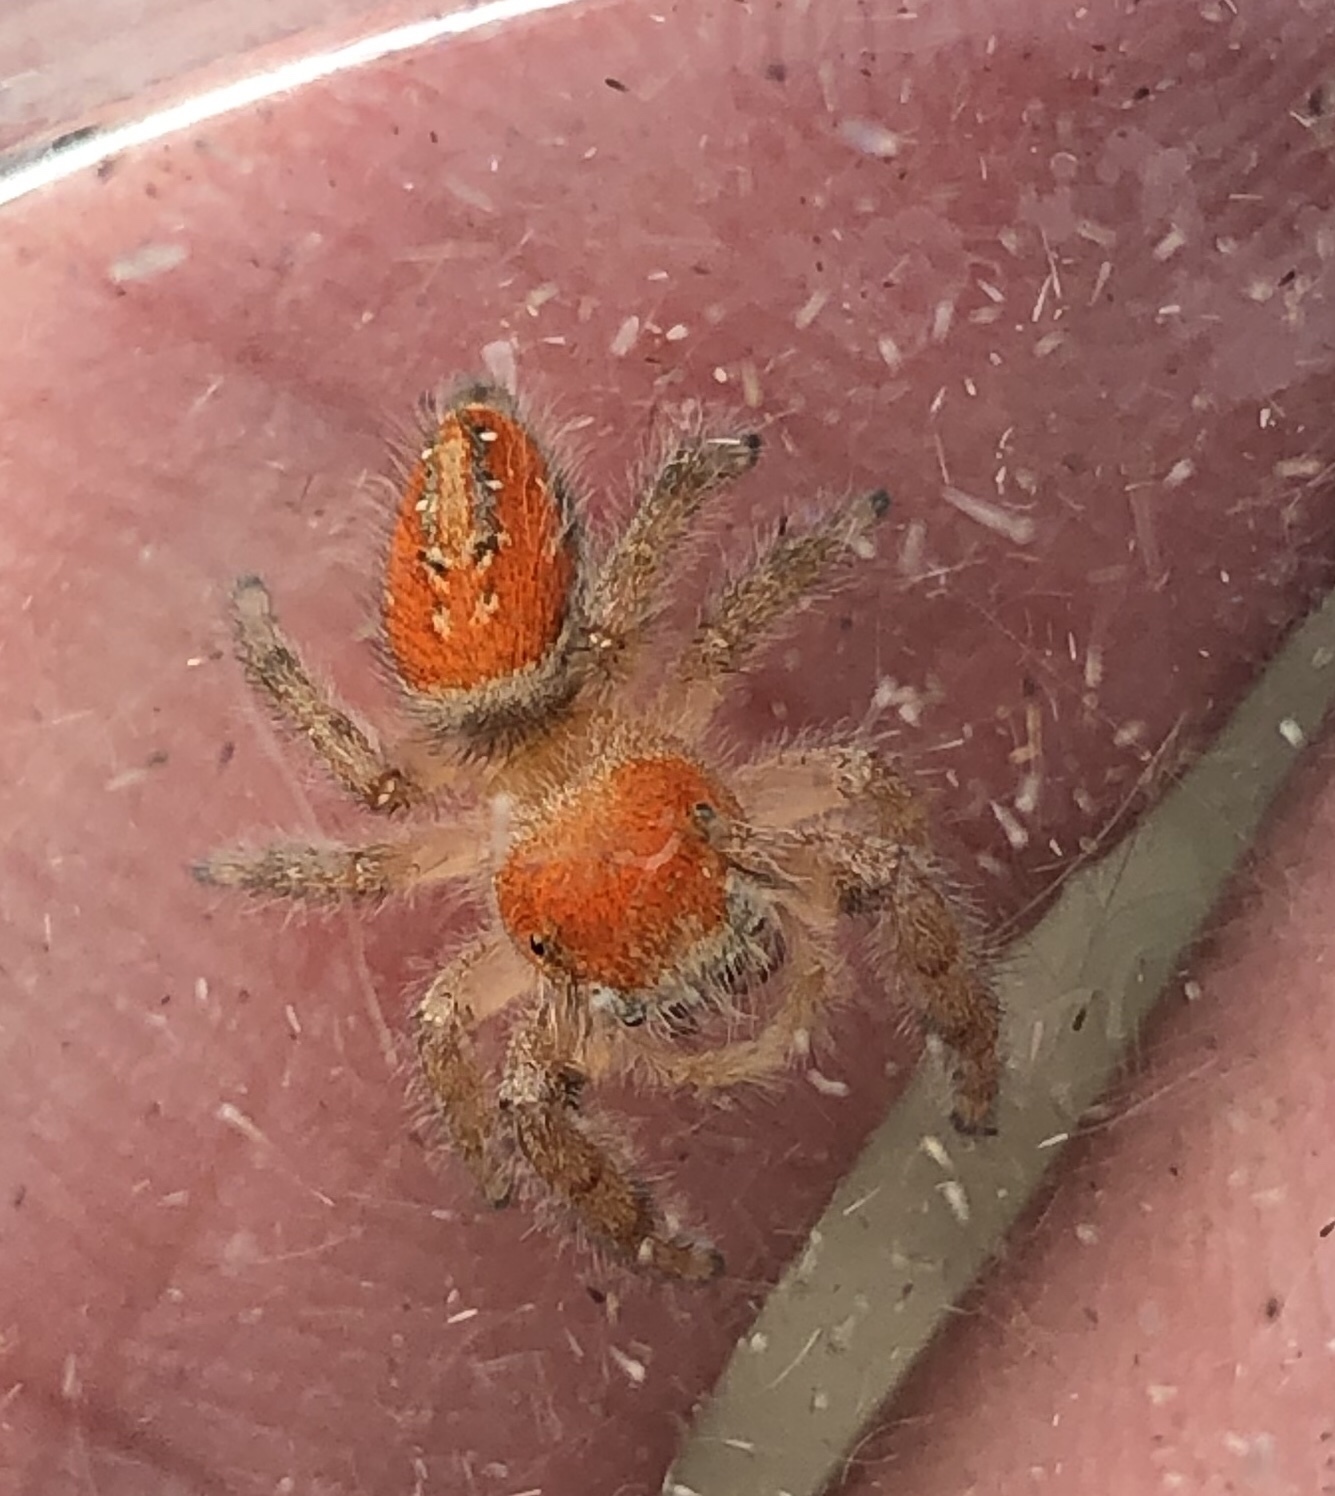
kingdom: Animalia
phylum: Arthropoda
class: Arachnida
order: Araneae
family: Salticidae
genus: Phidippus
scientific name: Phidippus cardinalis
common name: Cardinal jumper
